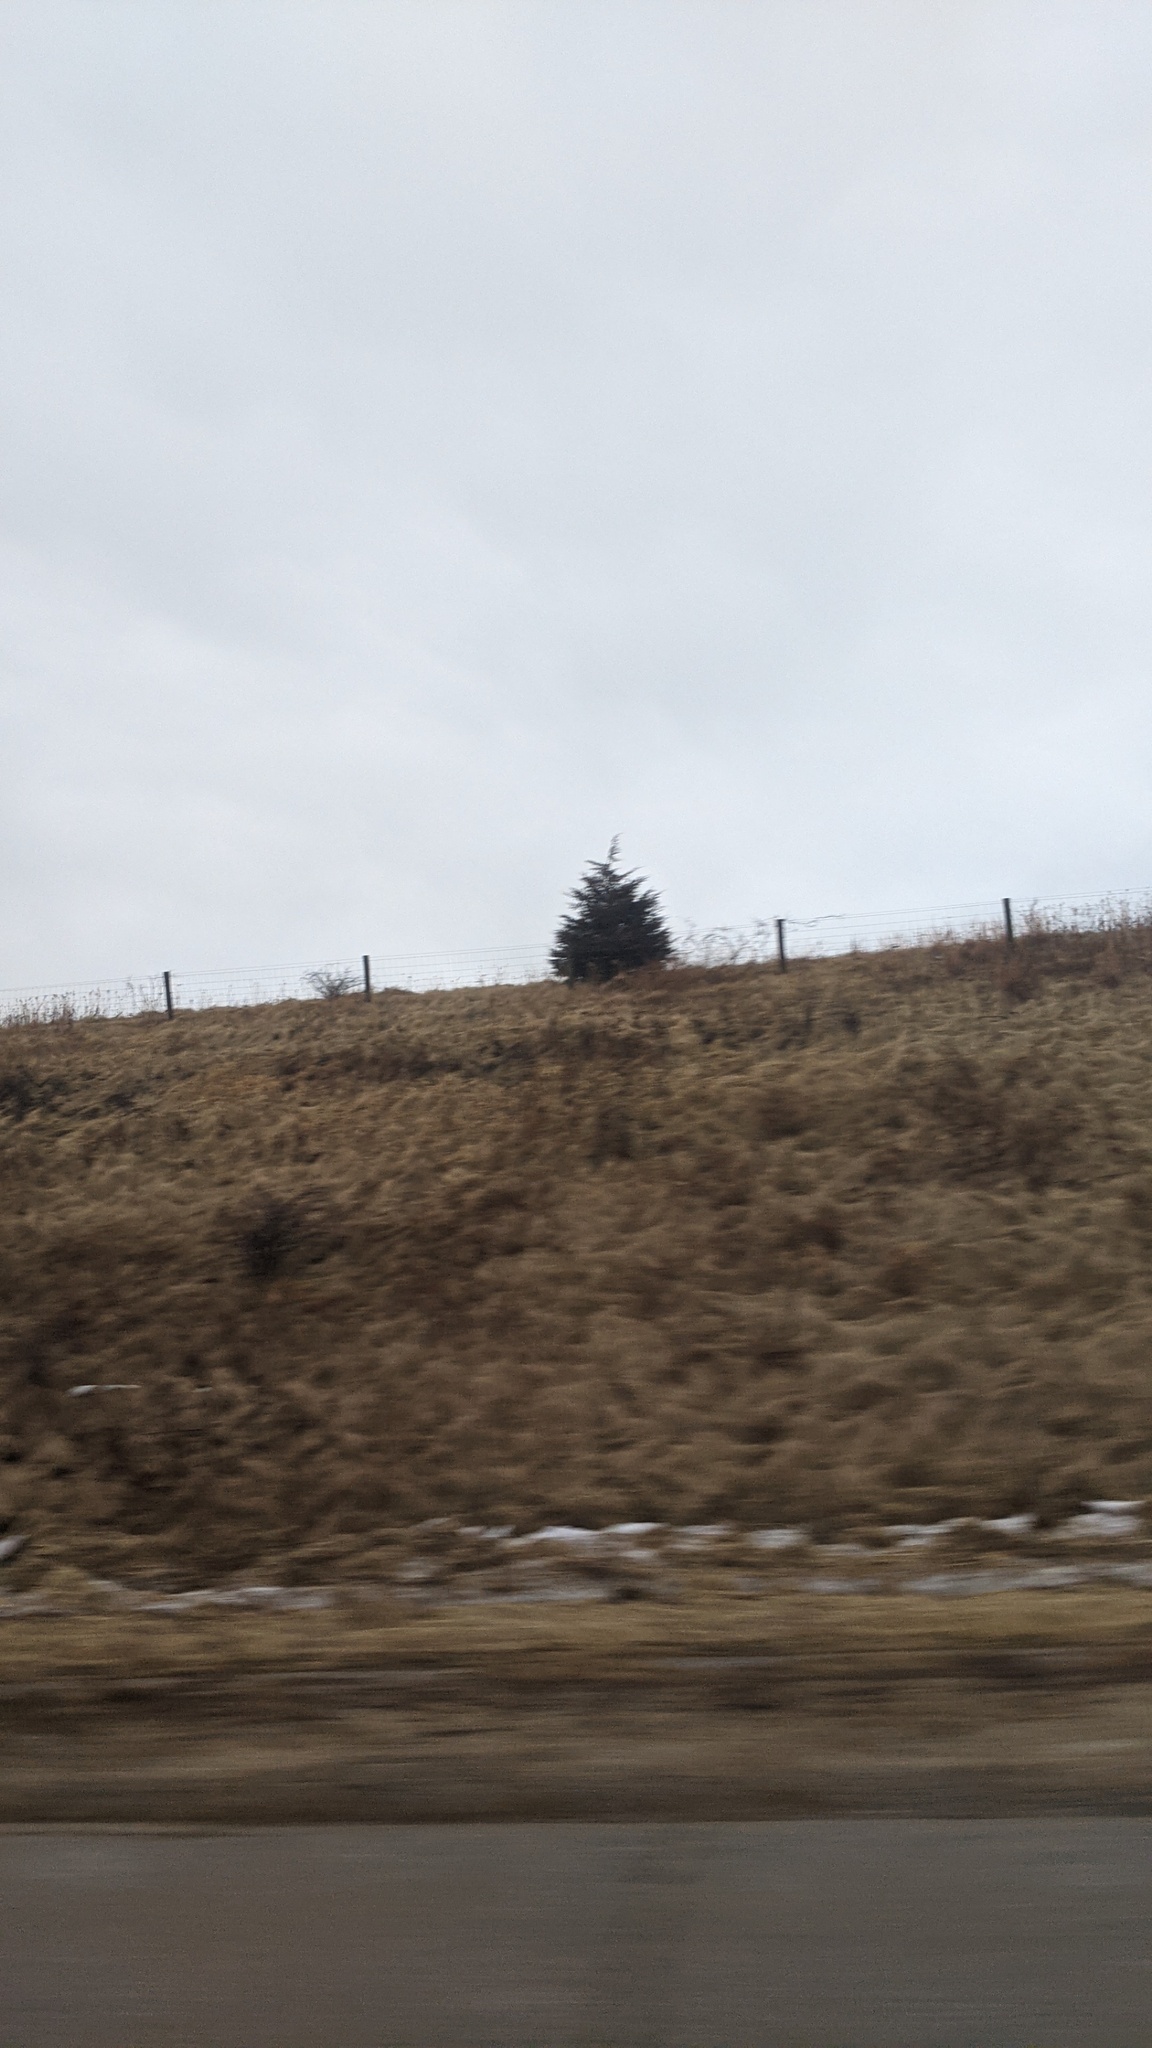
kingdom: Plantae
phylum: Tracheophyta
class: Pinopsida
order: Pinales
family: Cupressaceae
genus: Juniperus
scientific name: Juniperus virginiana
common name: Red juniper
